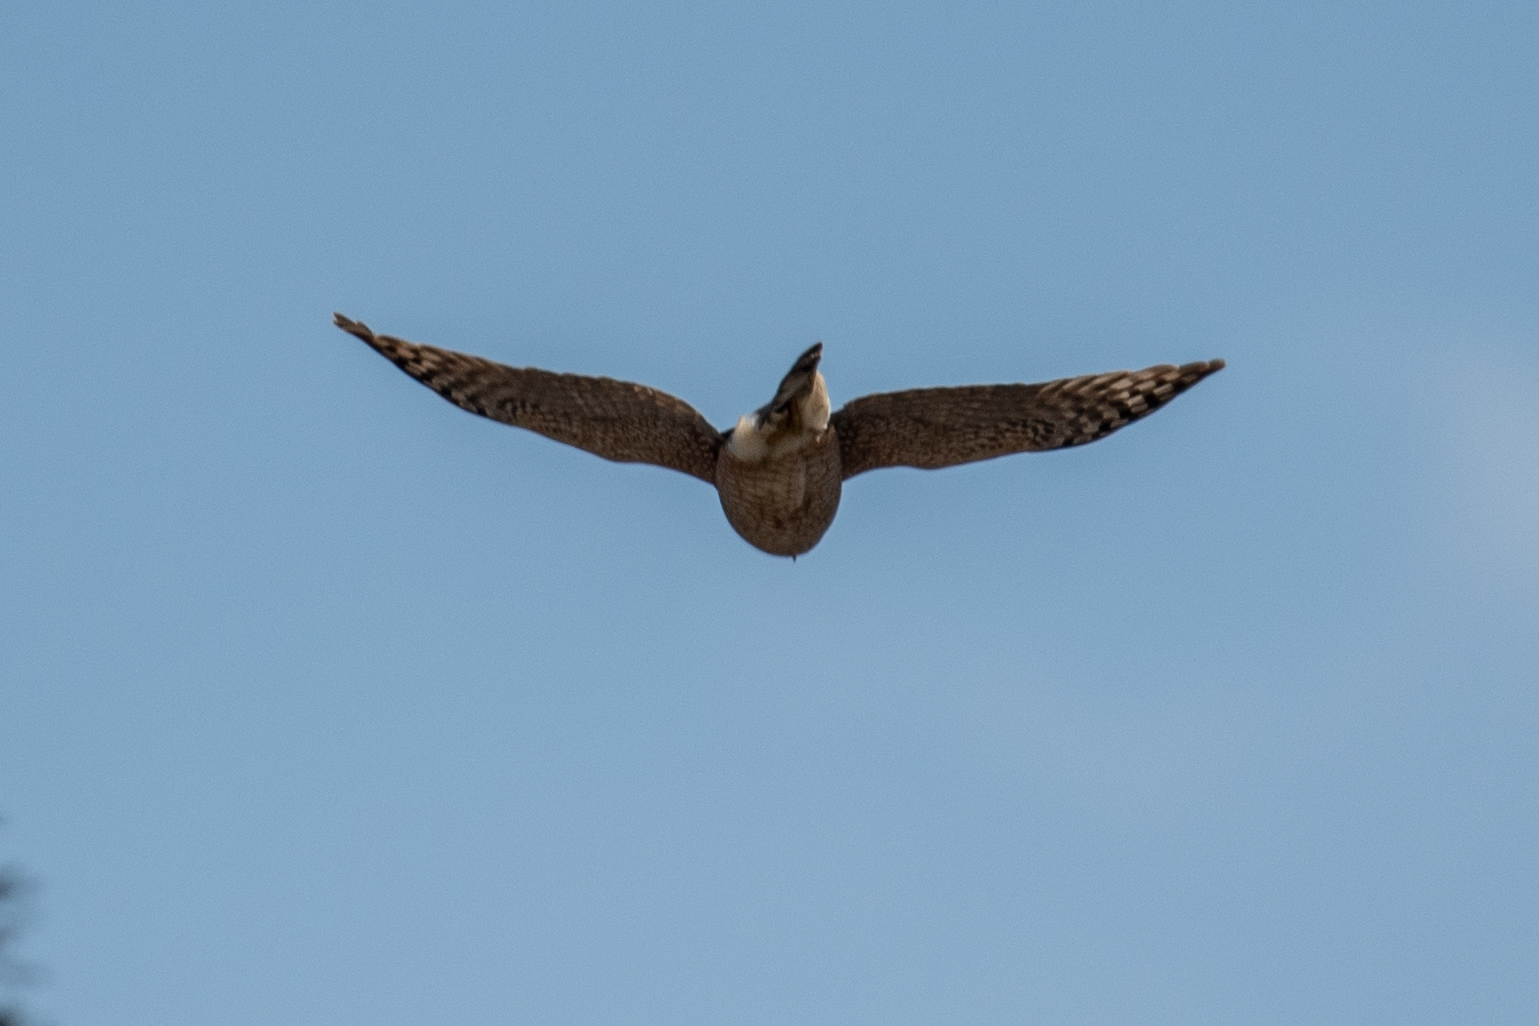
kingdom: Animalia
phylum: Chordata
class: Aves
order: Accipitriformes
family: Accipitridae
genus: Accipiter
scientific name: Accipiter cooperii
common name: Cooper's hawk
